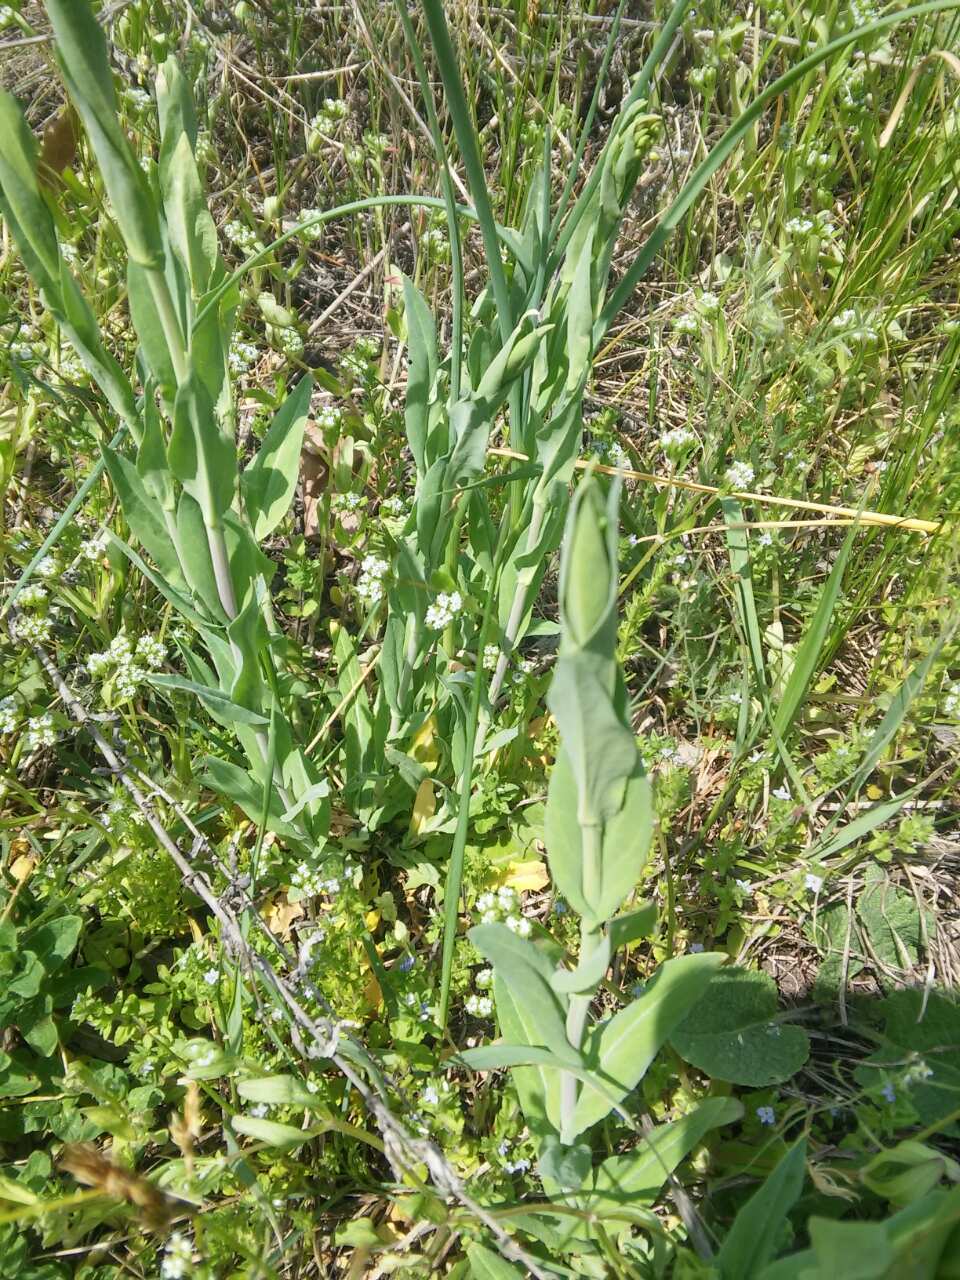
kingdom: Plantae
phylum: Tracheophyta
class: Magnoliopsida
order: Brassicales
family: Brassicaceae
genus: Turritis
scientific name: Turritis glabra
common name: Tower rockcress
